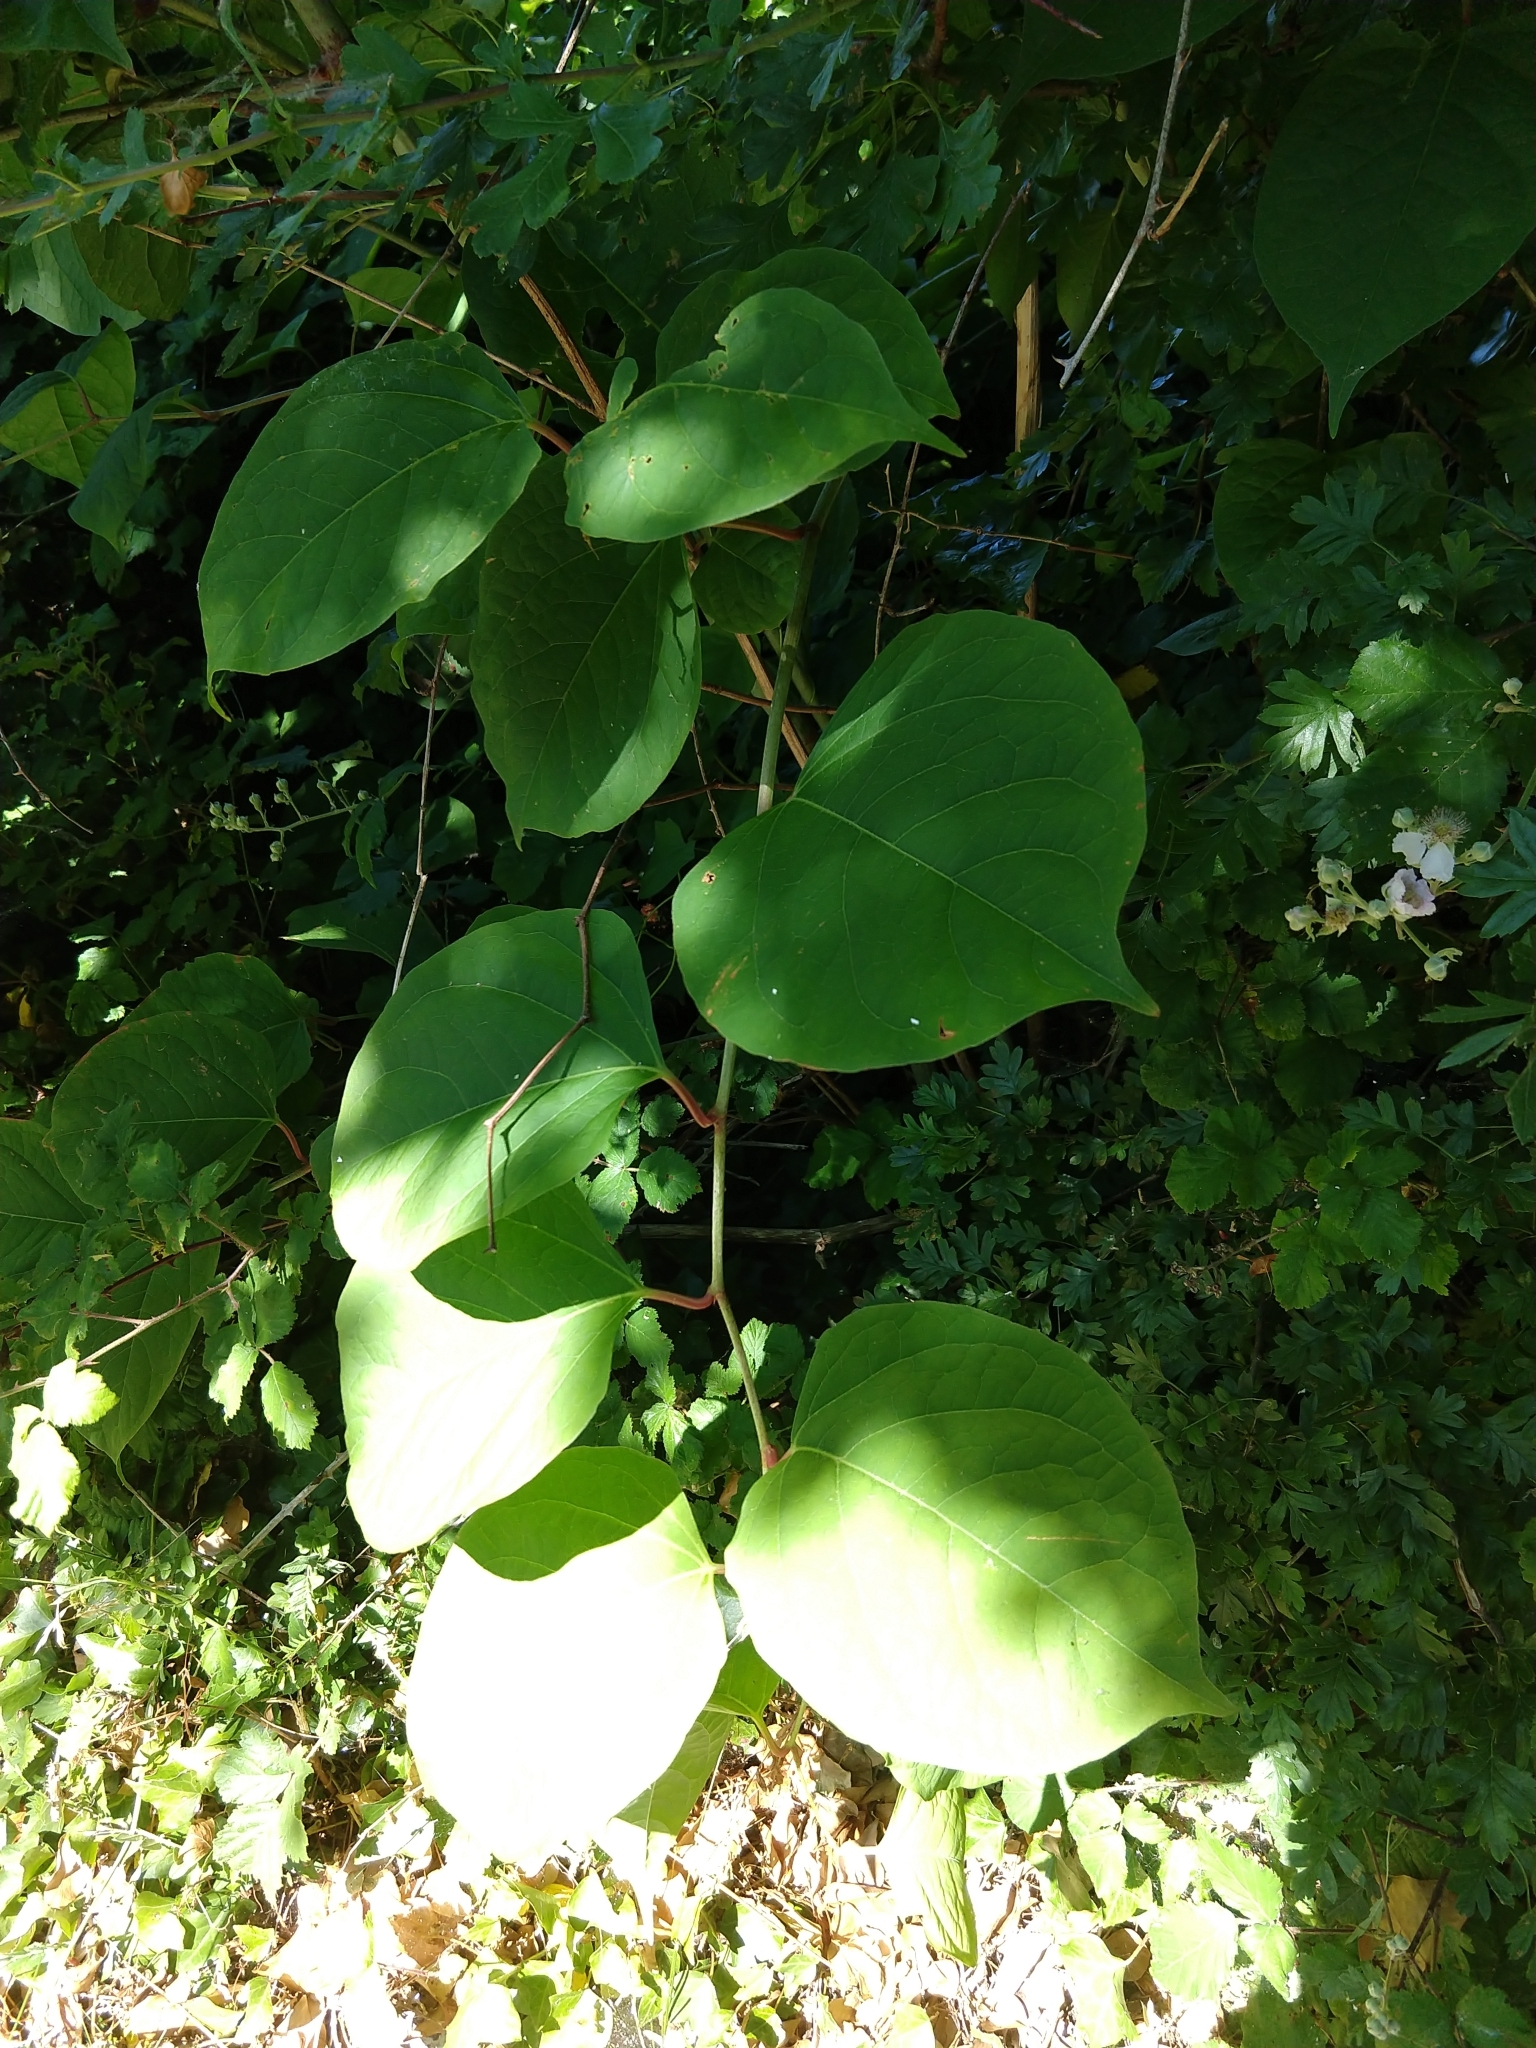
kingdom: Plantae
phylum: Tracheophyta
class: Magnoliopsida
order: Caryophyllales
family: Polygonaceae
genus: Reynoutria
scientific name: Reynoutria japonica
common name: Japanese knotweed
